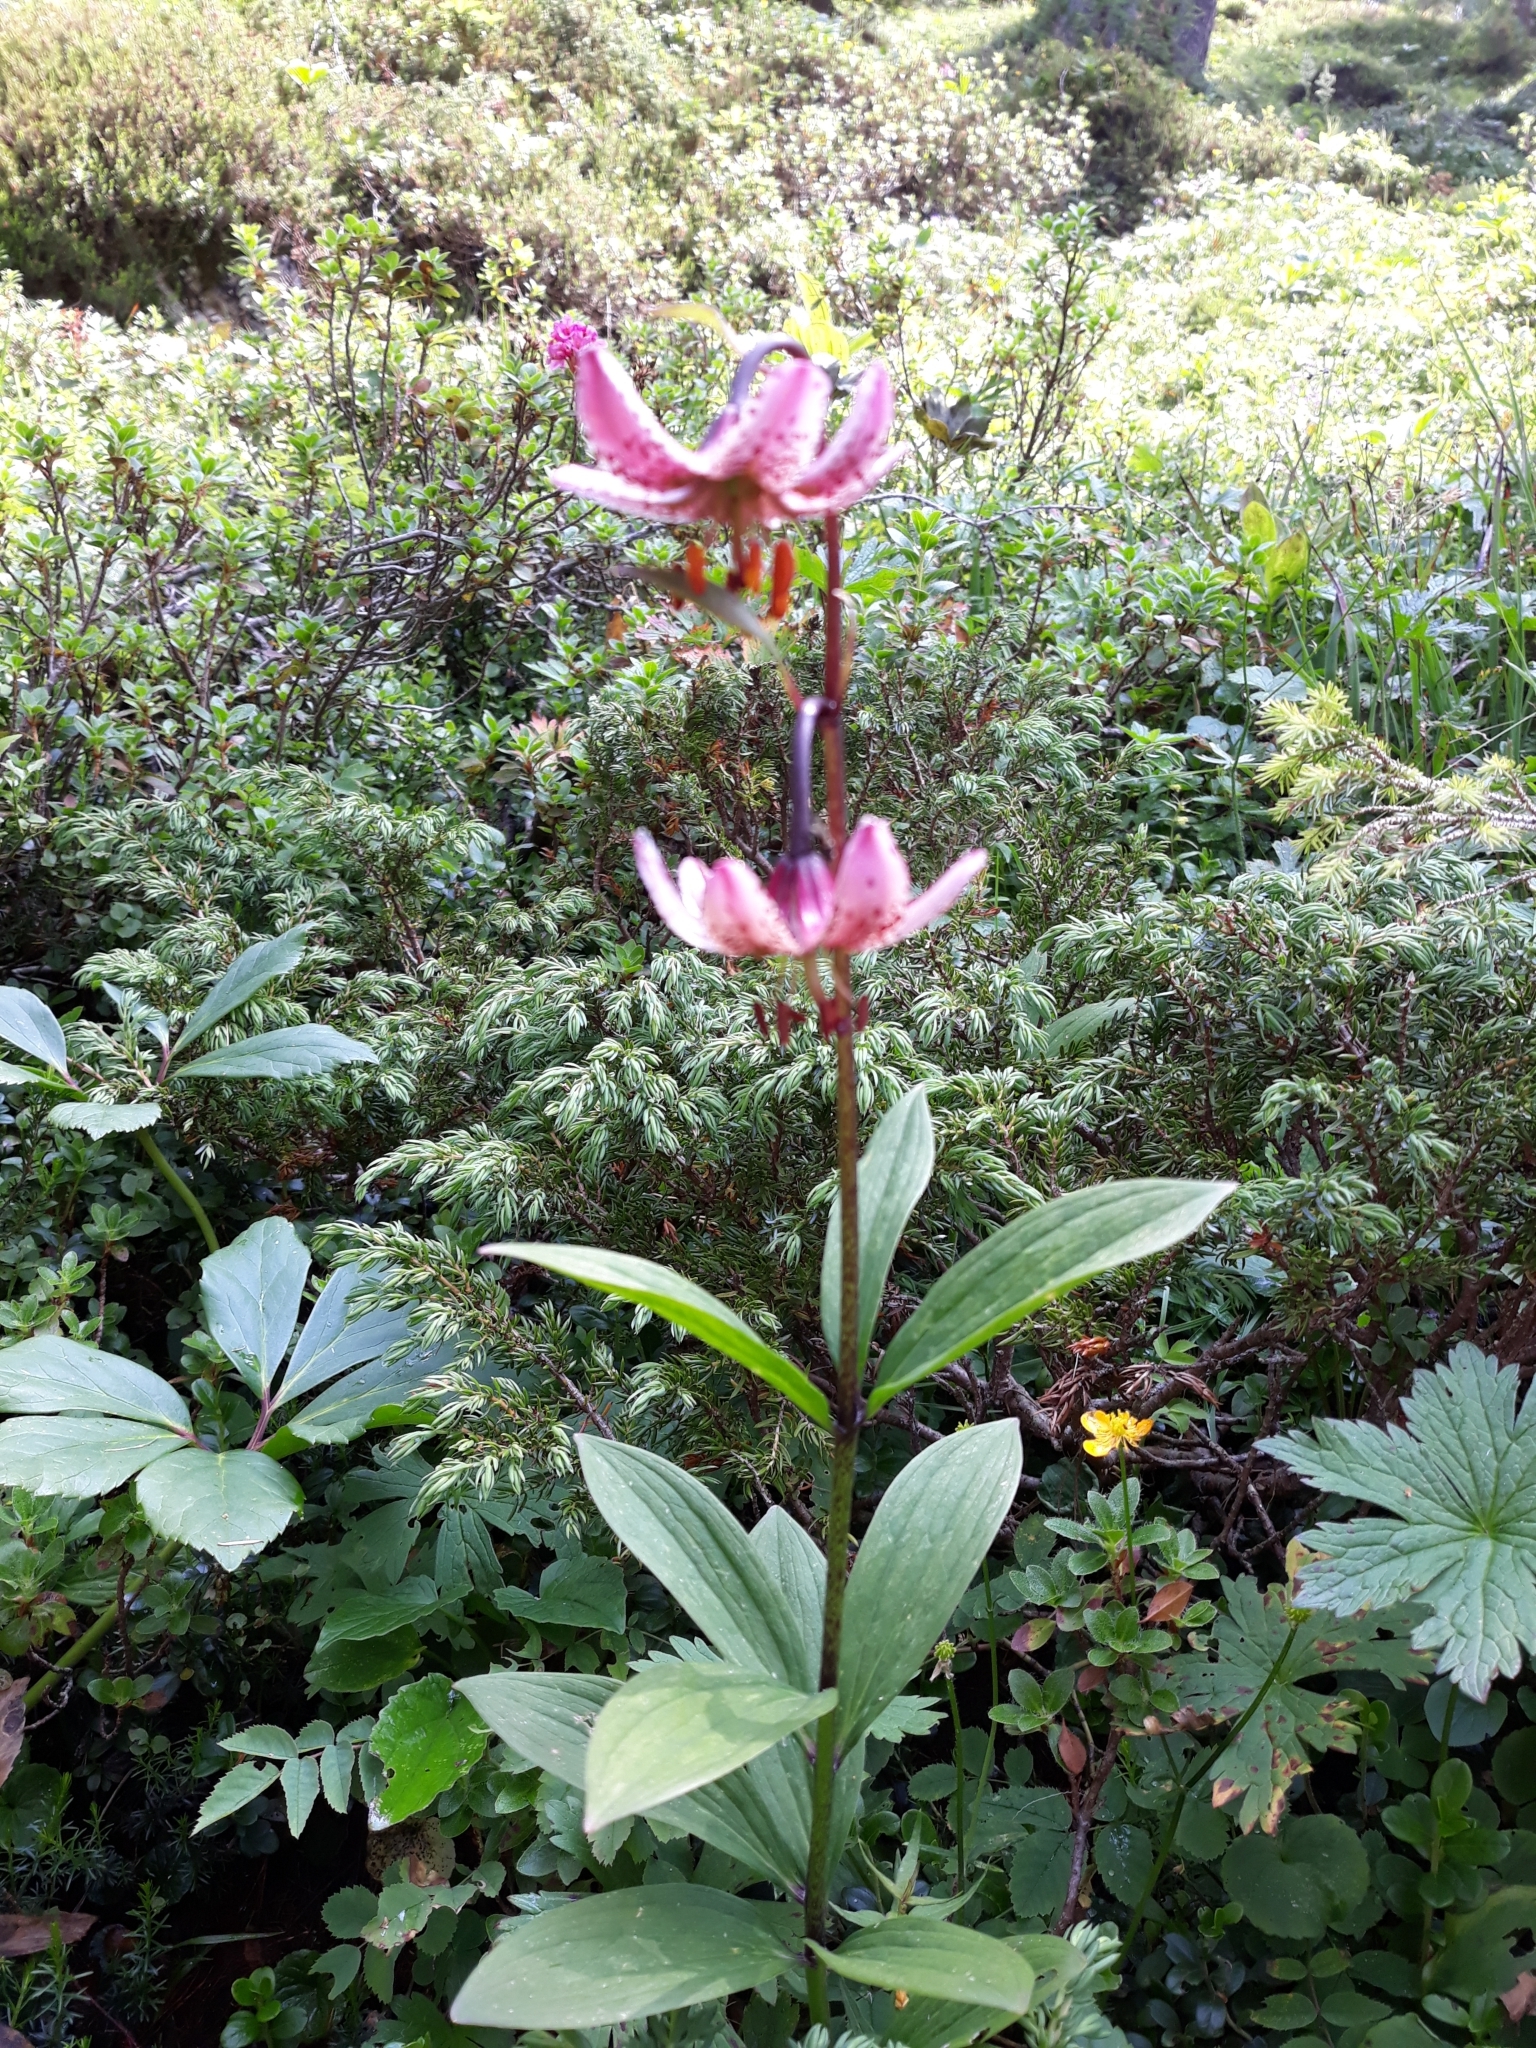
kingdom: Plantae
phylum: Tracheophyta
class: Liliopsida
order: Liliales
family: Liliaceae
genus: Lilium
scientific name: Lilium martagon
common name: Martagon lily
